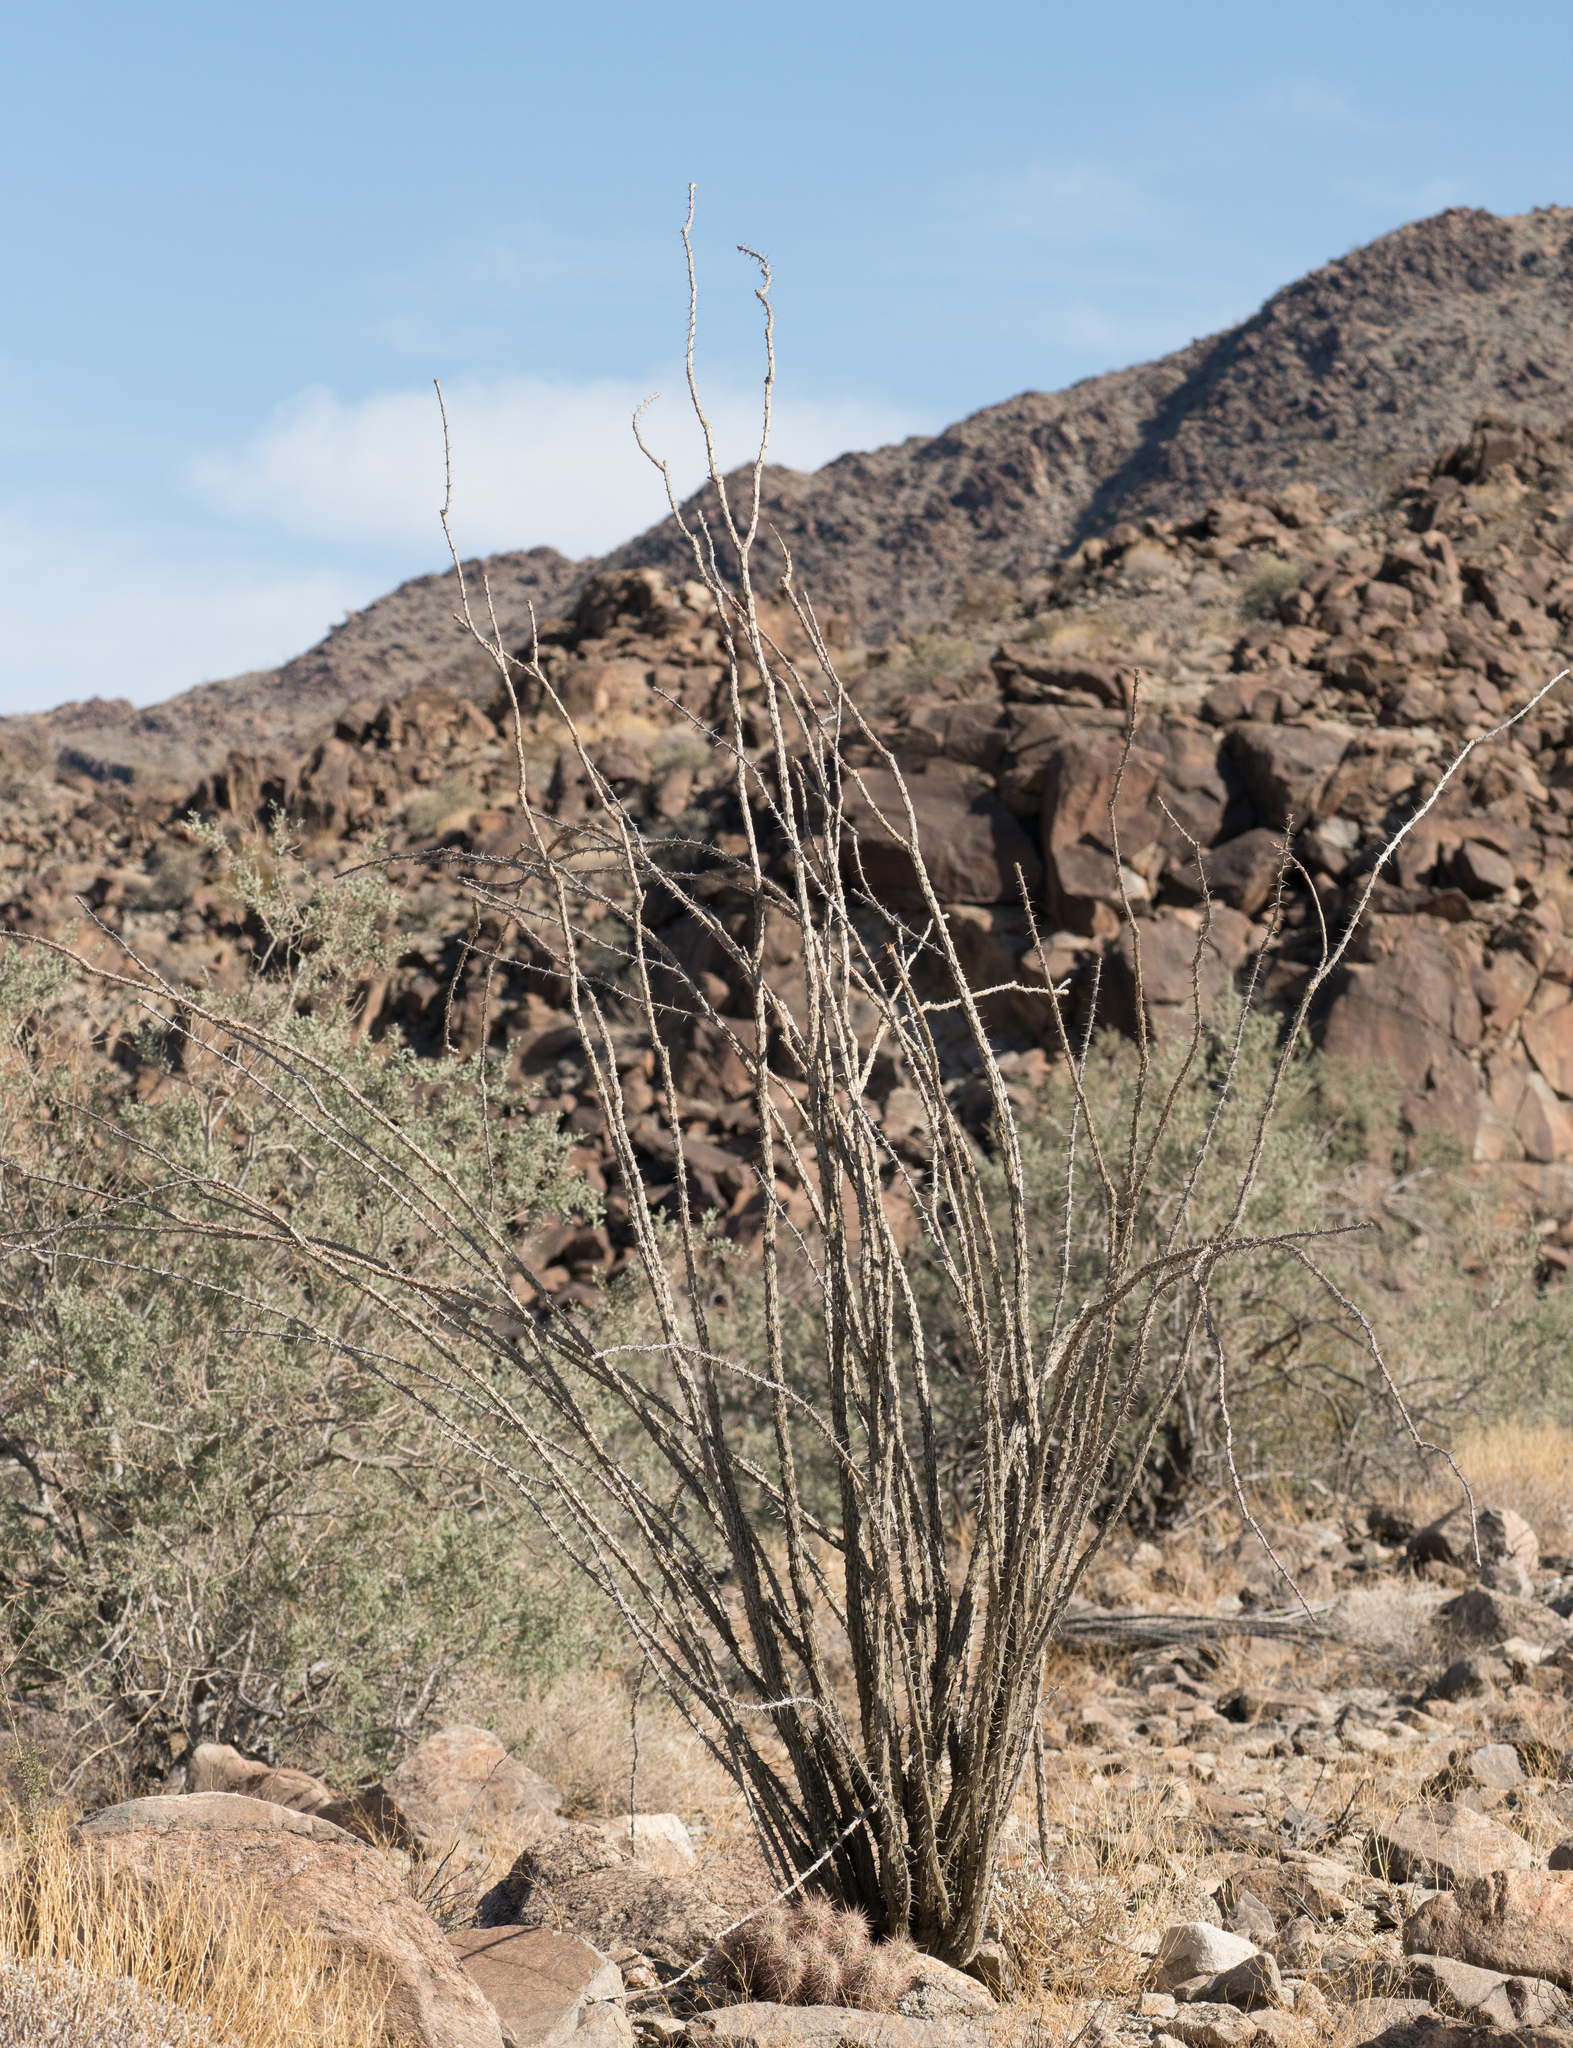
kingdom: Plantae
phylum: Tracheophyta
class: Magnoliopsida
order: Ericales
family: Fouquieriaceae
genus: Fouquieria
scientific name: Fouquieria splendens
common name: Vine-cactus
